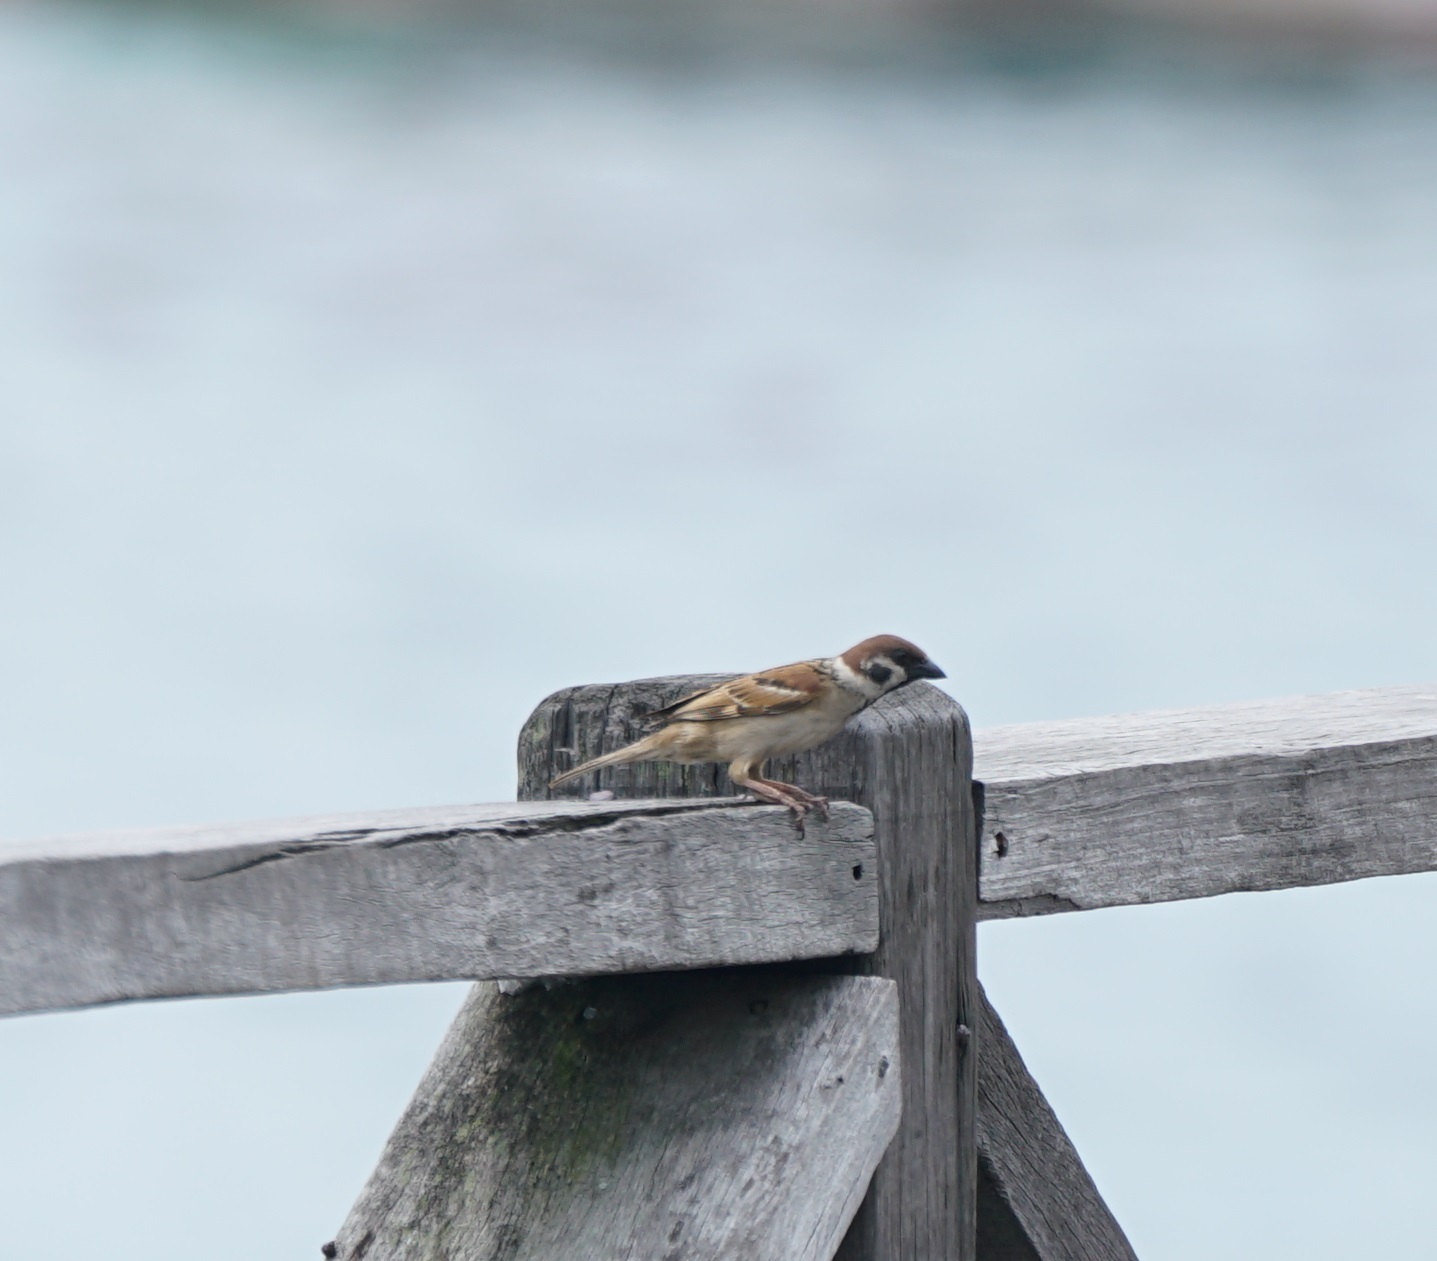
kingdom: Animalia
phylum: Chordata
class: Aves
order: Passeriformes
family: Passeridae
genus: Passer
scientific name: Passer montanus
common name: Eurasian tree sparrow
